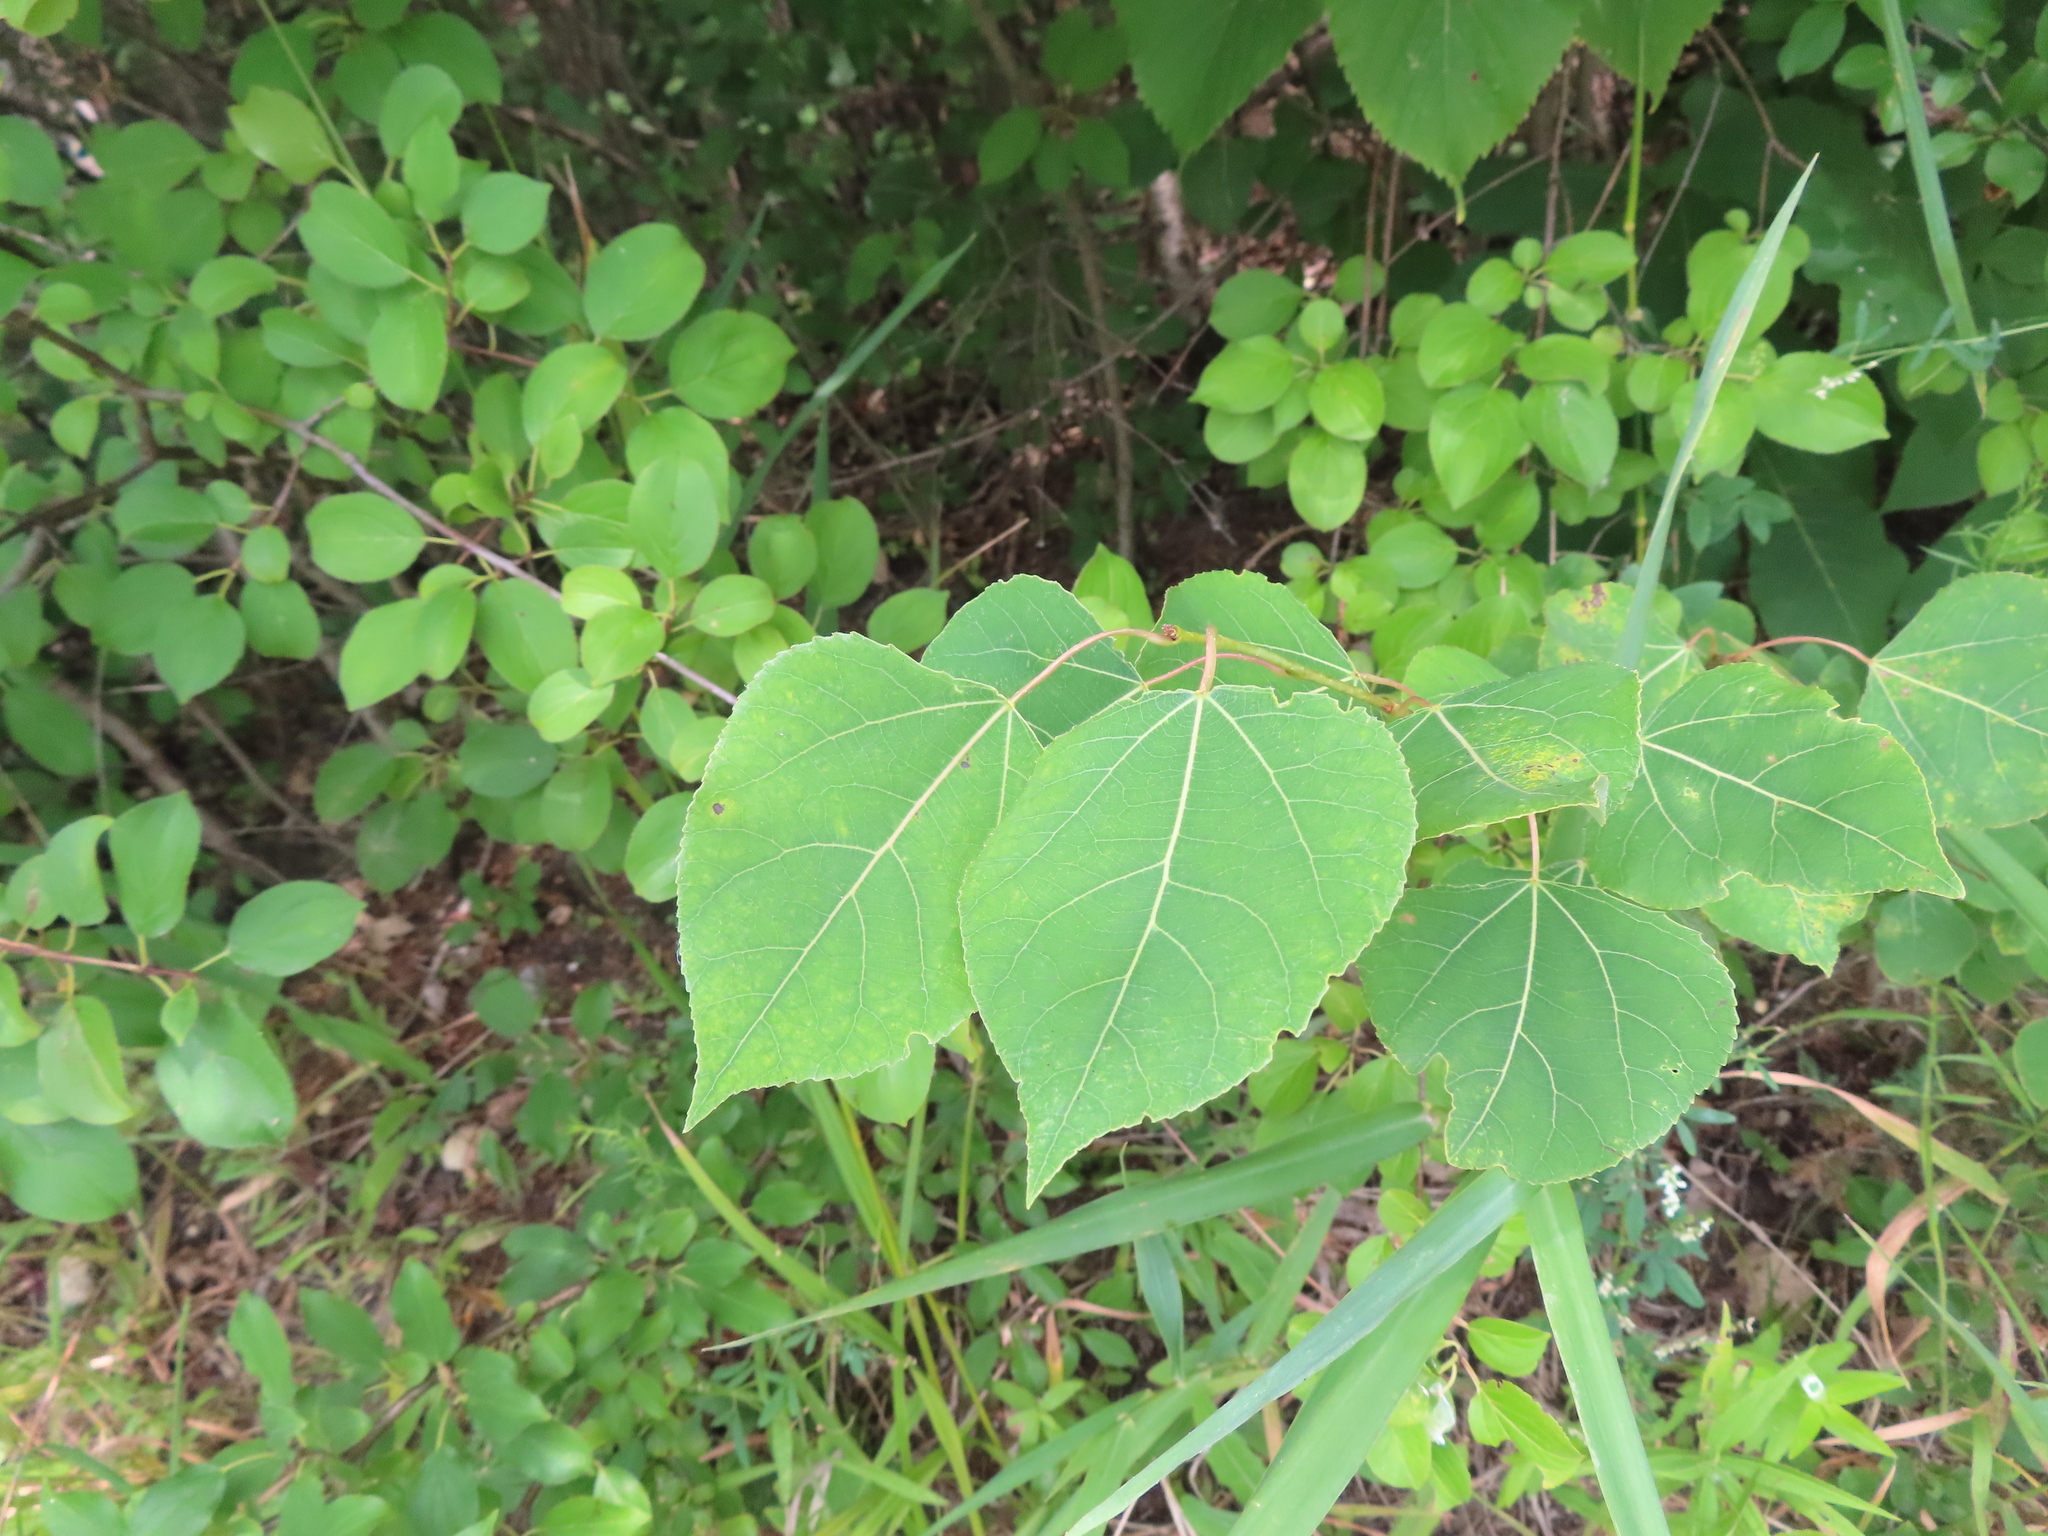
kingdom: Plantae
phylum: Tracheophyta
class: Magnoliopsida
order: Malpighiales
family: Salicaceae
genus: Populus
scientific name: Populus tremuloides
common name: Quaking aspen
